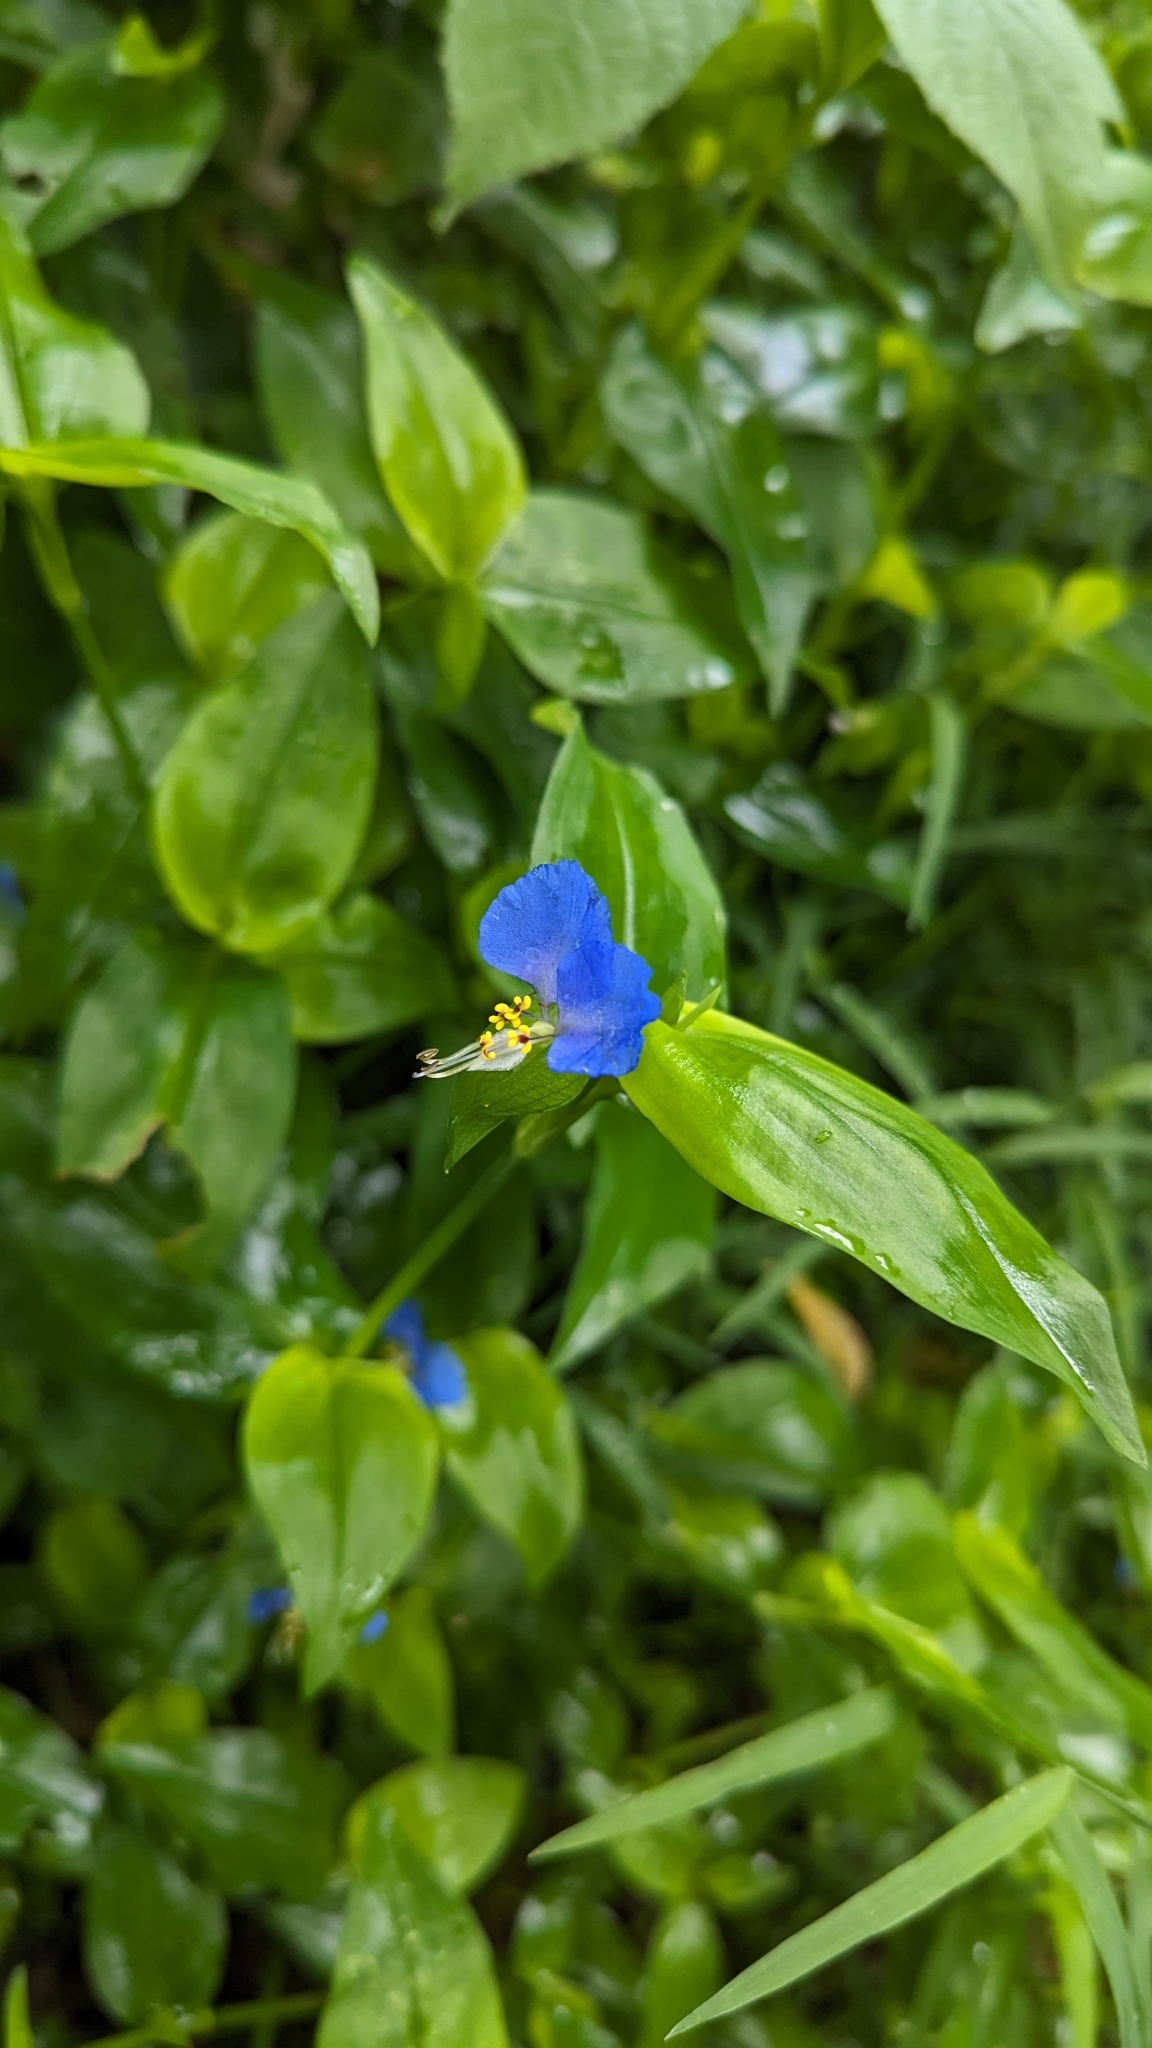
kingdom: Plantae
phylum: Tracheophyta
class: Liliopsida
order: Commelinales
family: Commelinaceae
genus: Commelina
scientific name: Commelina communis
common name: Asiatic dayflower
